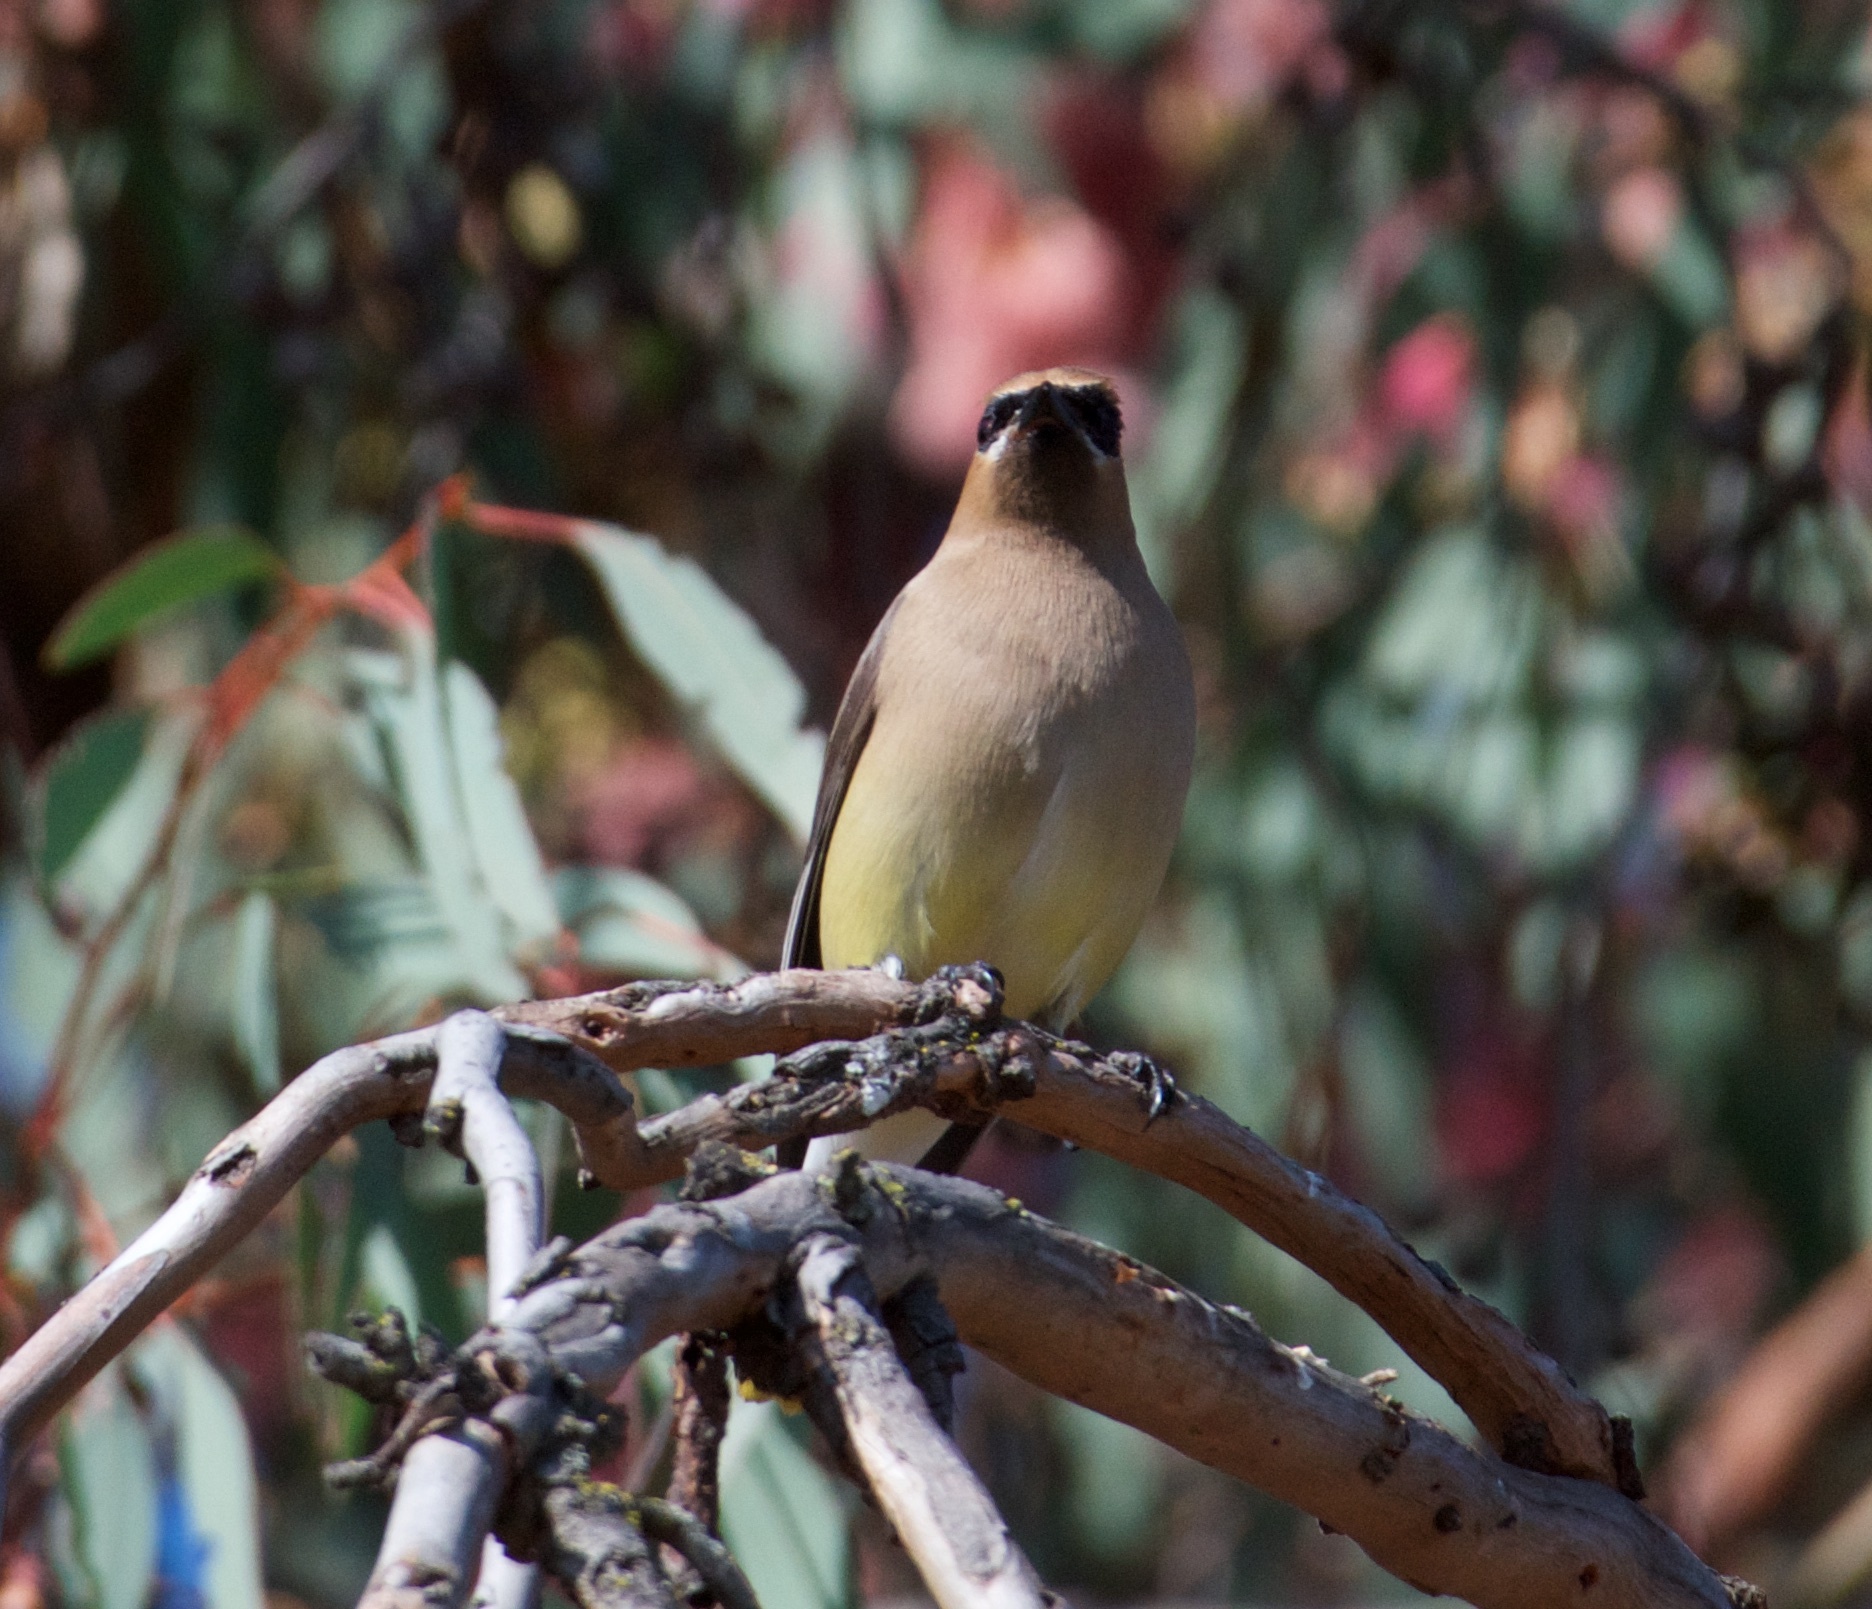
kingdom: Animalia
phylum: Chordata
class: Aves
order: Passeriformes
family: Bombycillidae
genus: Bombycilla
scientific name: Bombycilla cedrorum
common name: Cedar waxwing
